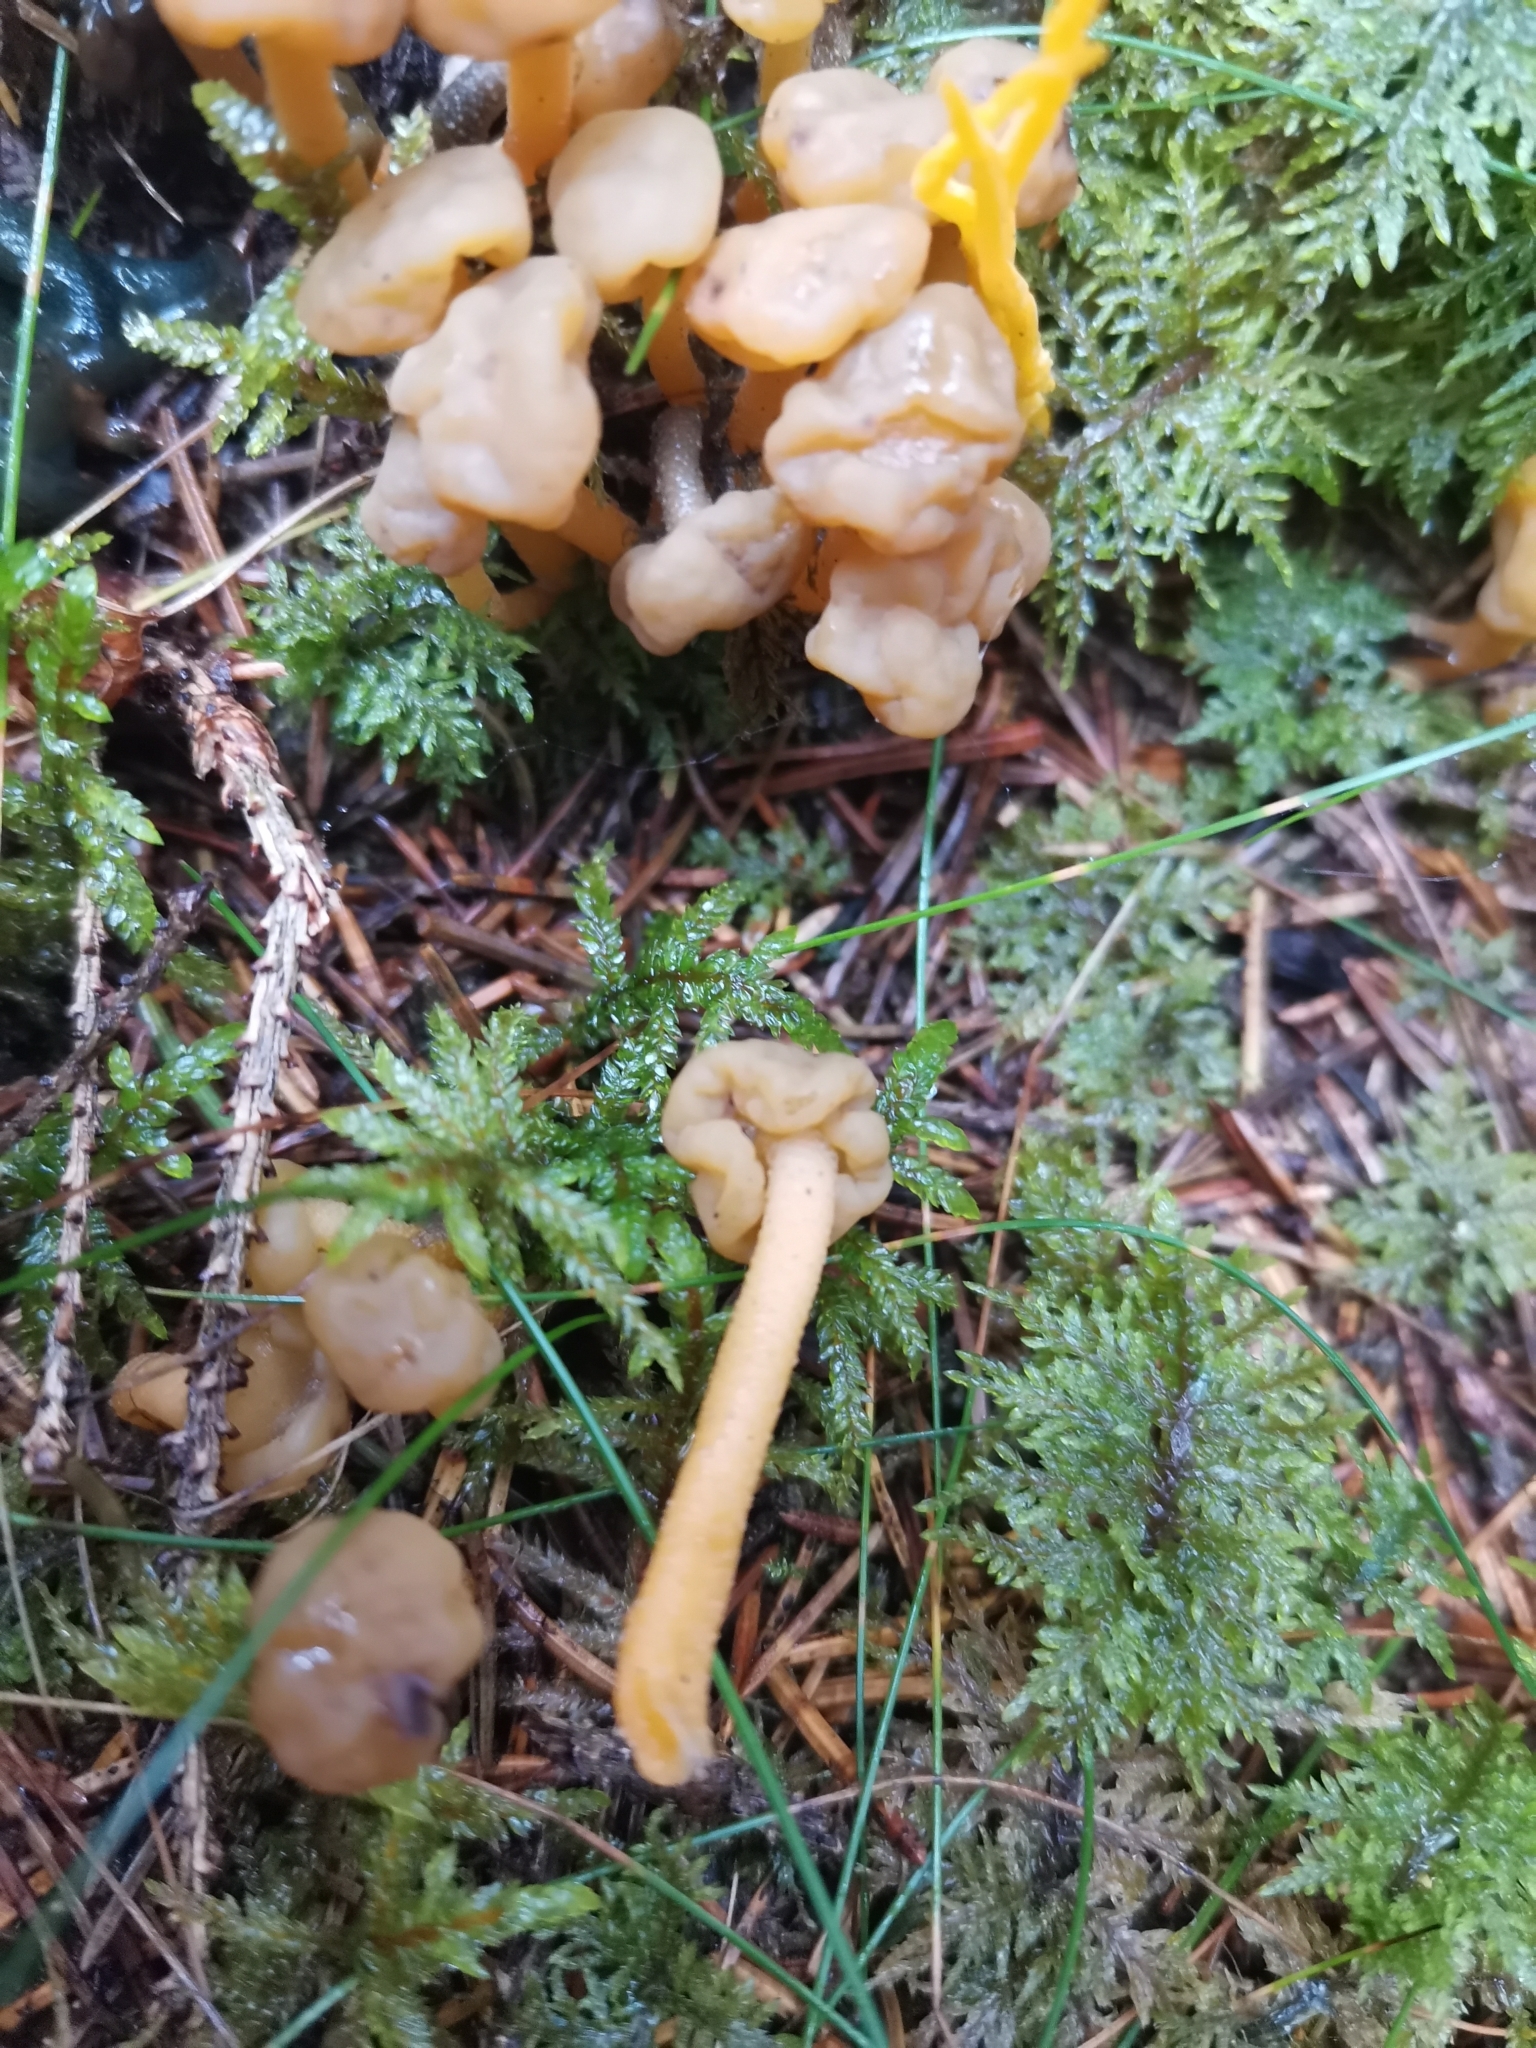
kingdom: Fungi
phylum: Ascomycota
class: Leotiomycetes
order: Leotiales
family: Leotiaceae
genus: Leotia
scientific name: Leotia lubrica
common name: Jellybaby
